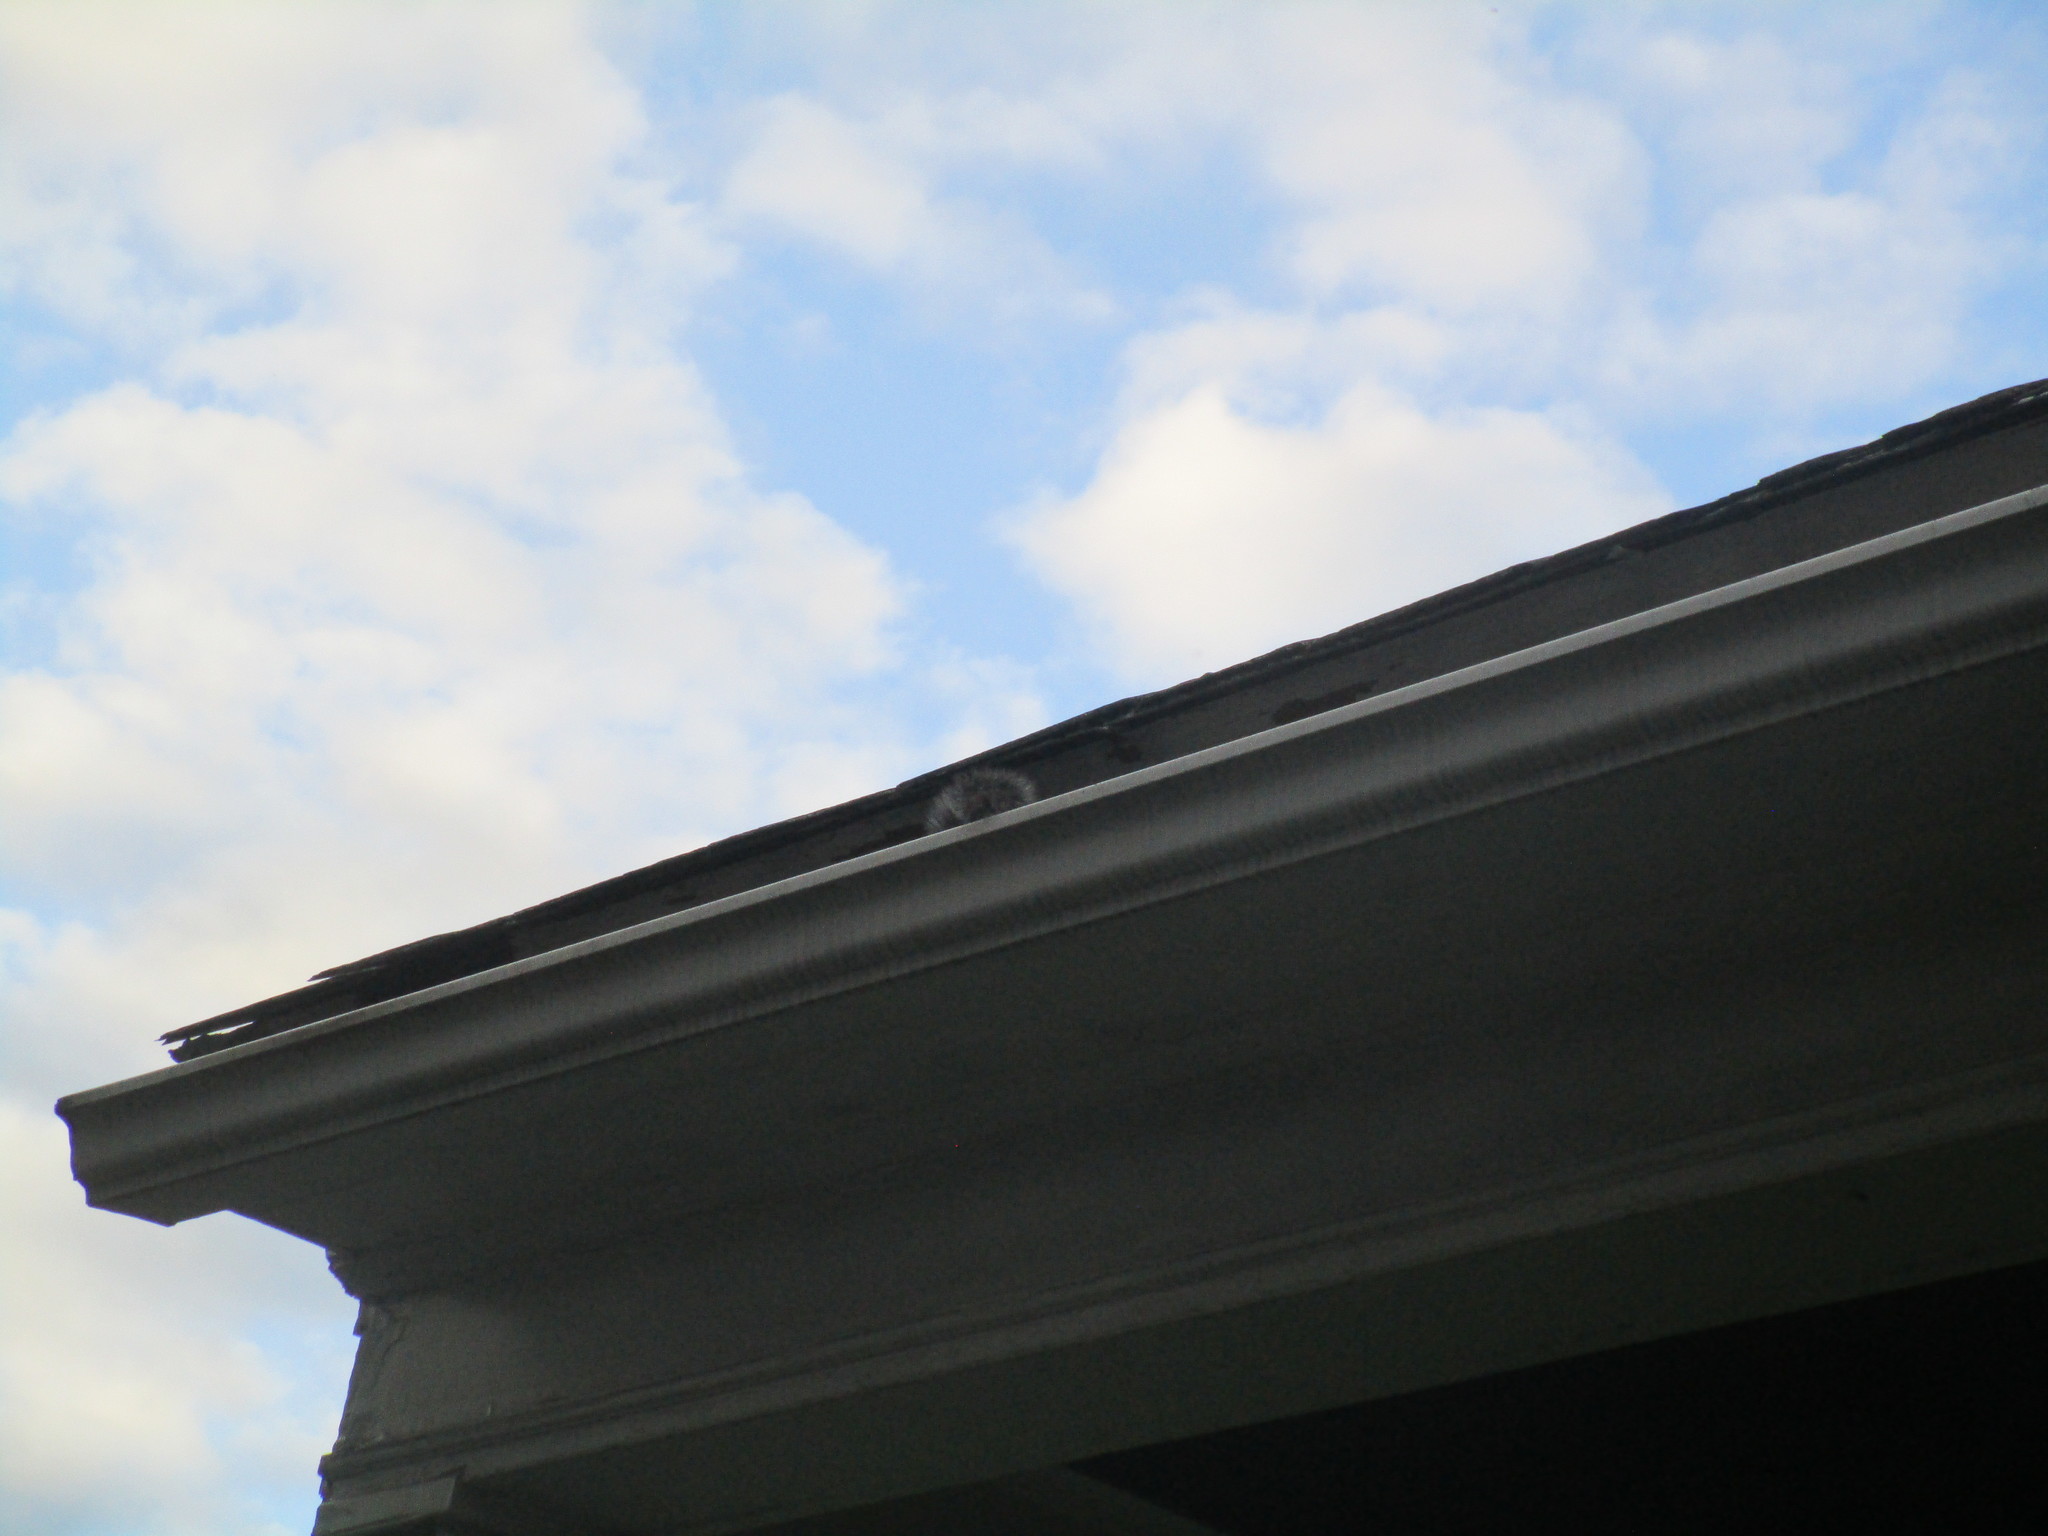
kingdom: Animalia
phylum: Chordata
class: Mammalia
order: Rodentia
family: Sciuridae
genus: Sciurus
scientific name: Sciurus carolinensis
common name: Eastern gray squirrel
